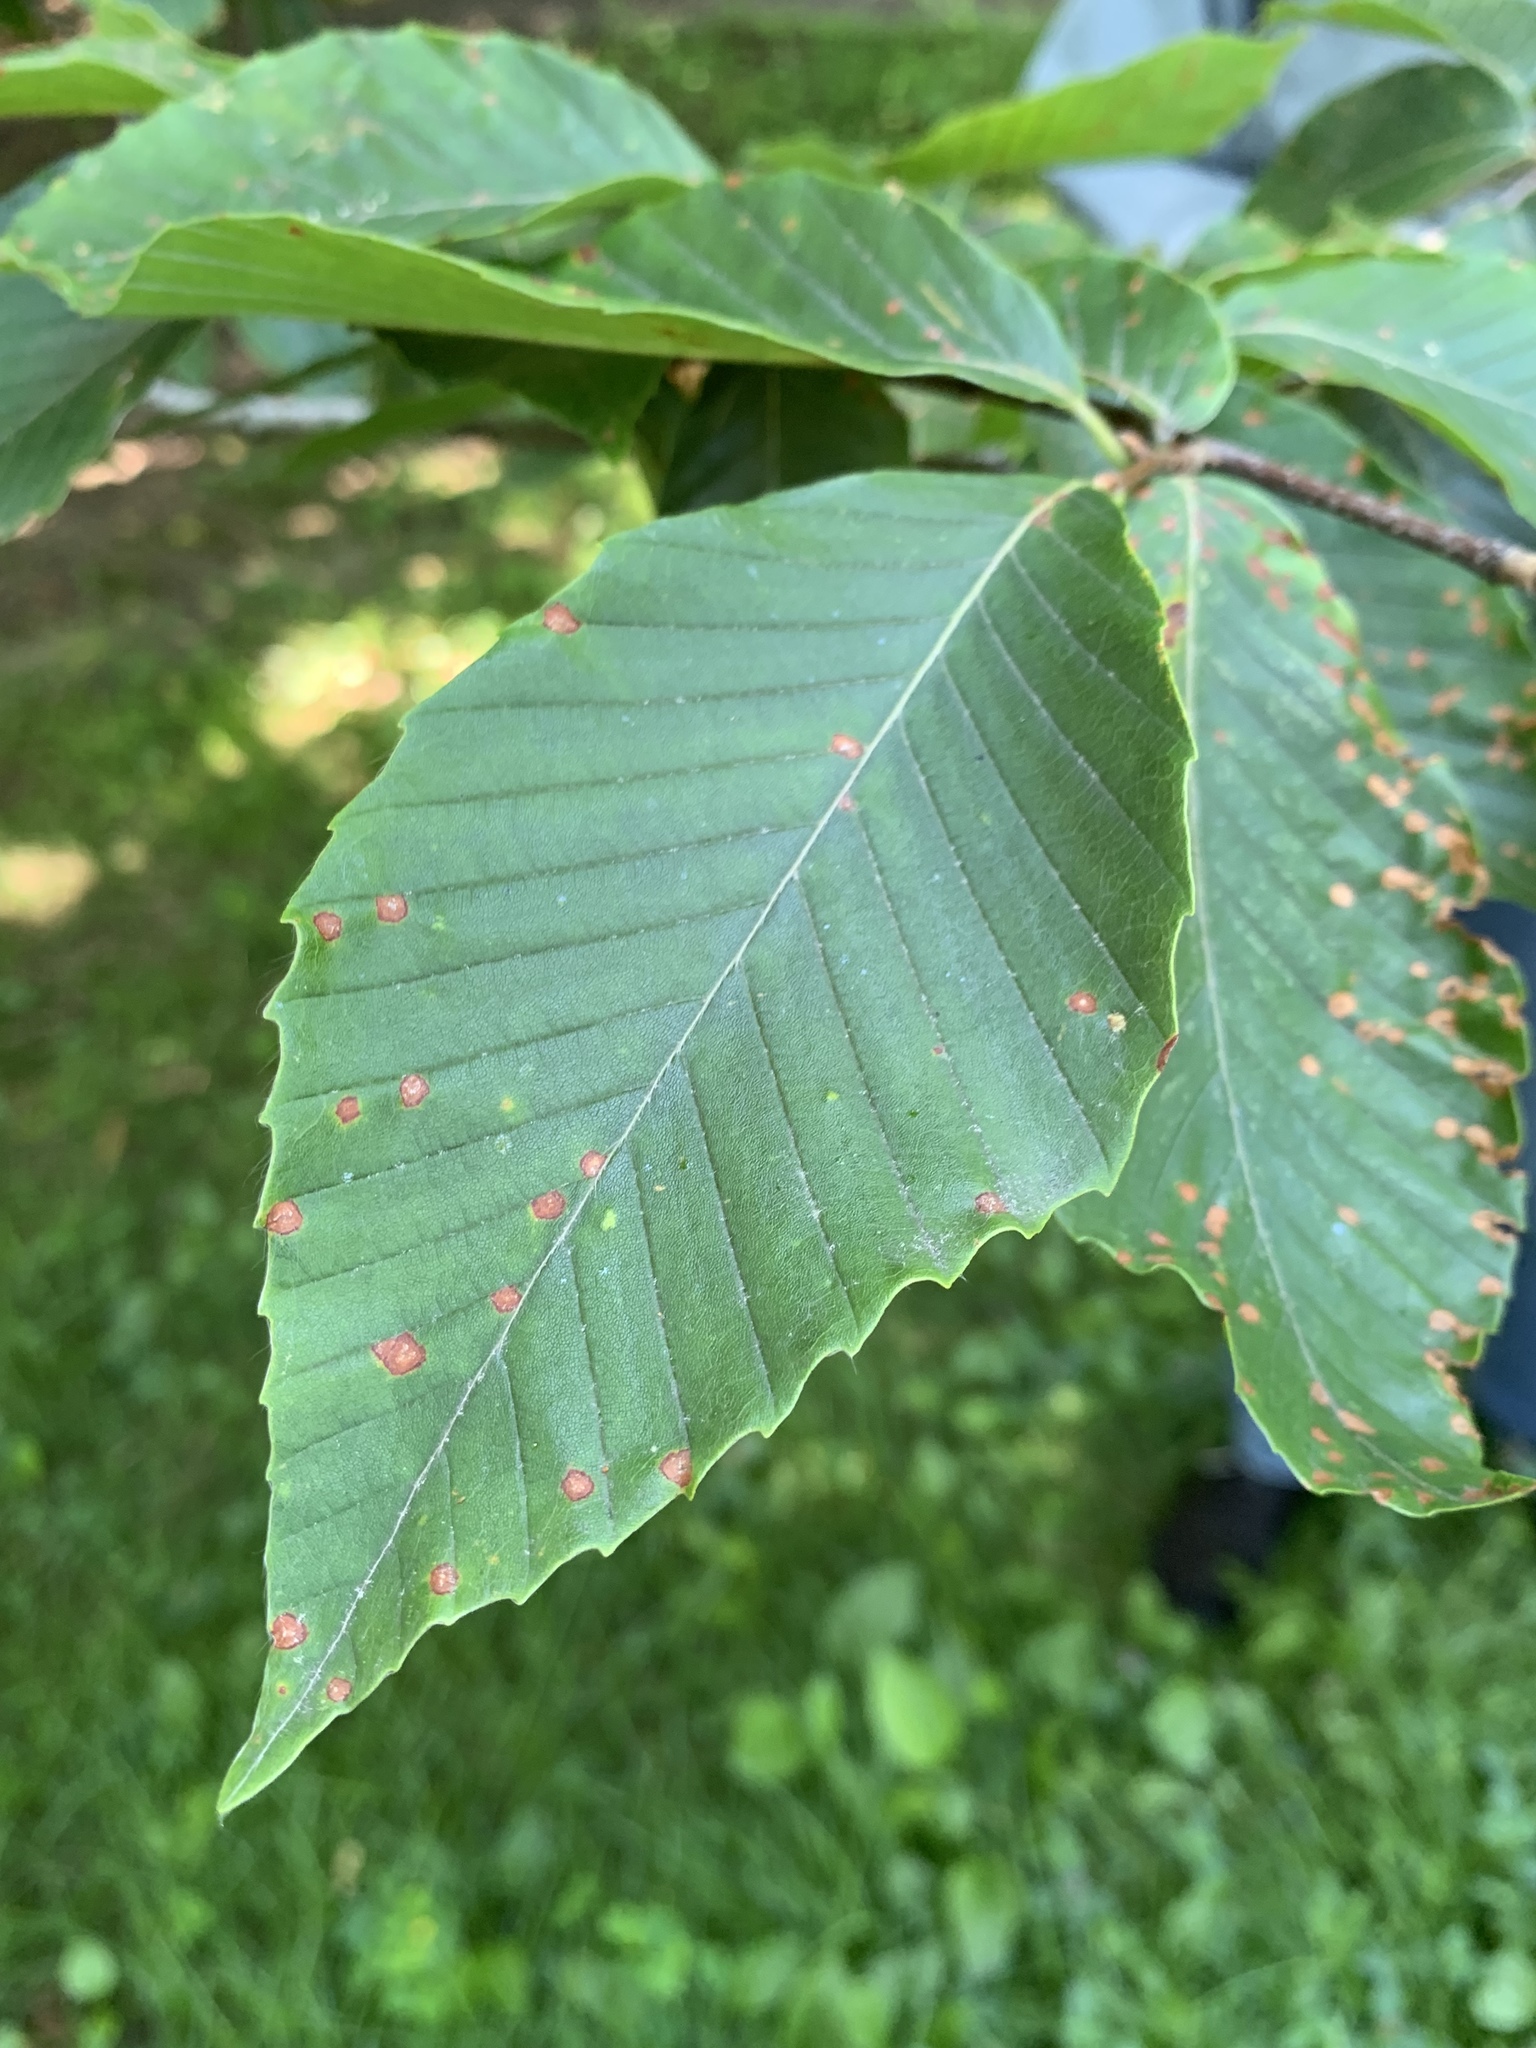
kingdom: Plantae
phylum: Tracheophyta
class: Magnoliopsida
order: Fagales
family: Fagaceae
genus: Fagus
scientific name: Fagus grandifolia
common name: American beech
